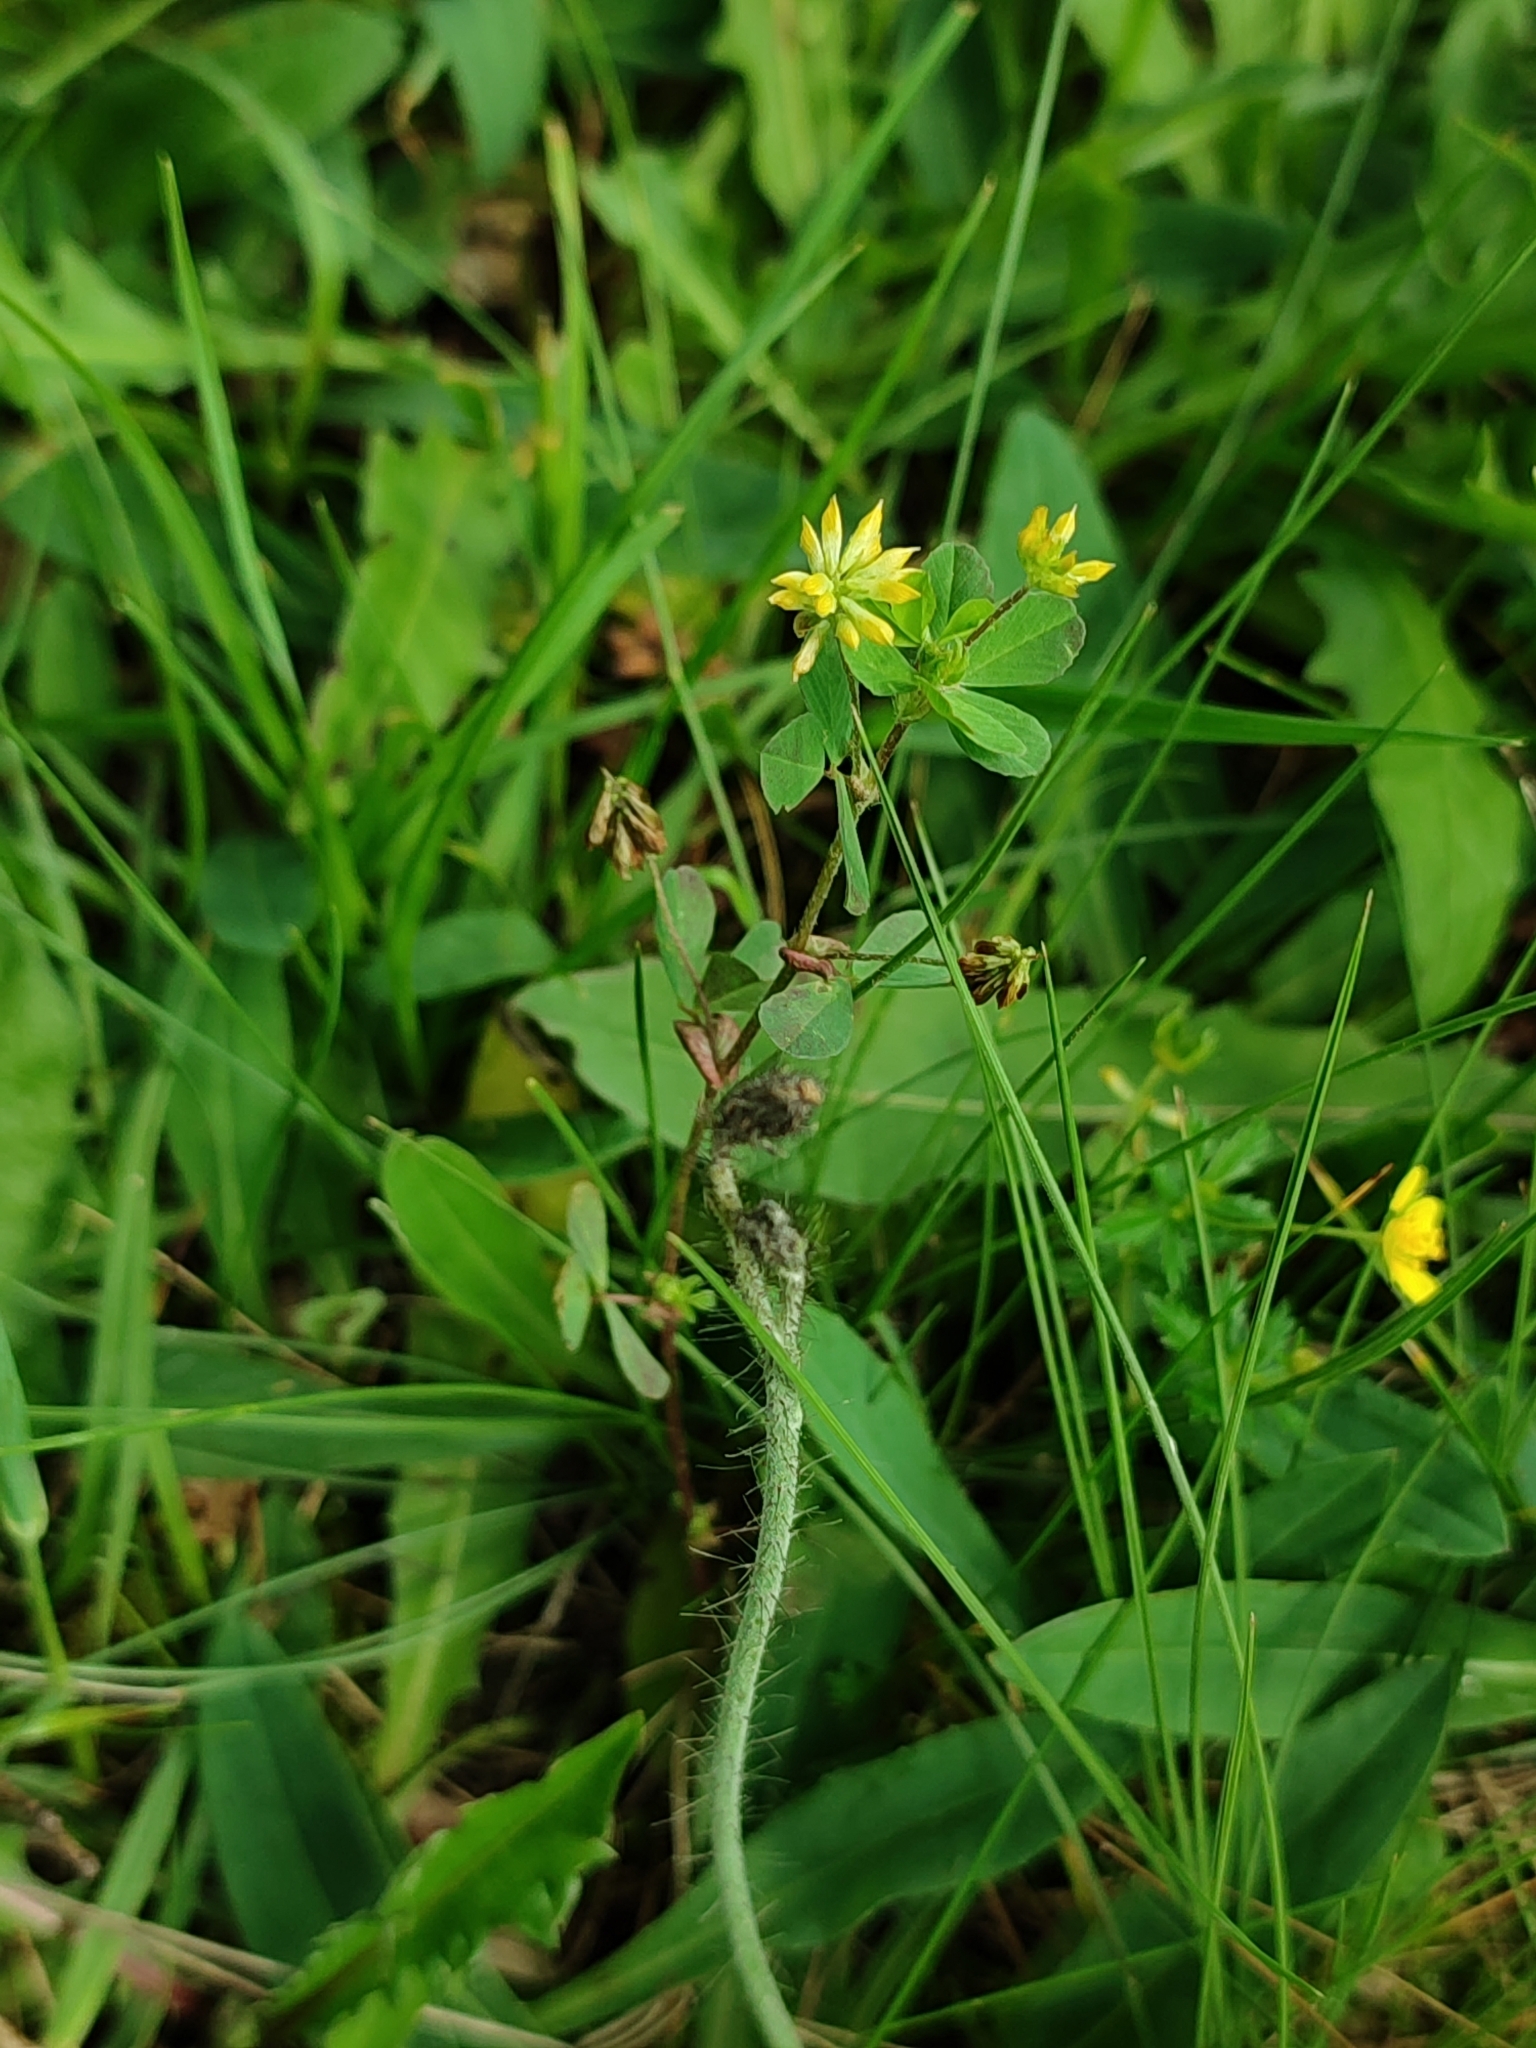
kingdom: Plantae
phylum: Tracheophyta
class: Magnoliopsida
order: Fabales
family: Fabaceae
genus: Trifolium
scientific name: Trifolium dubium
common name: Suckling clover
